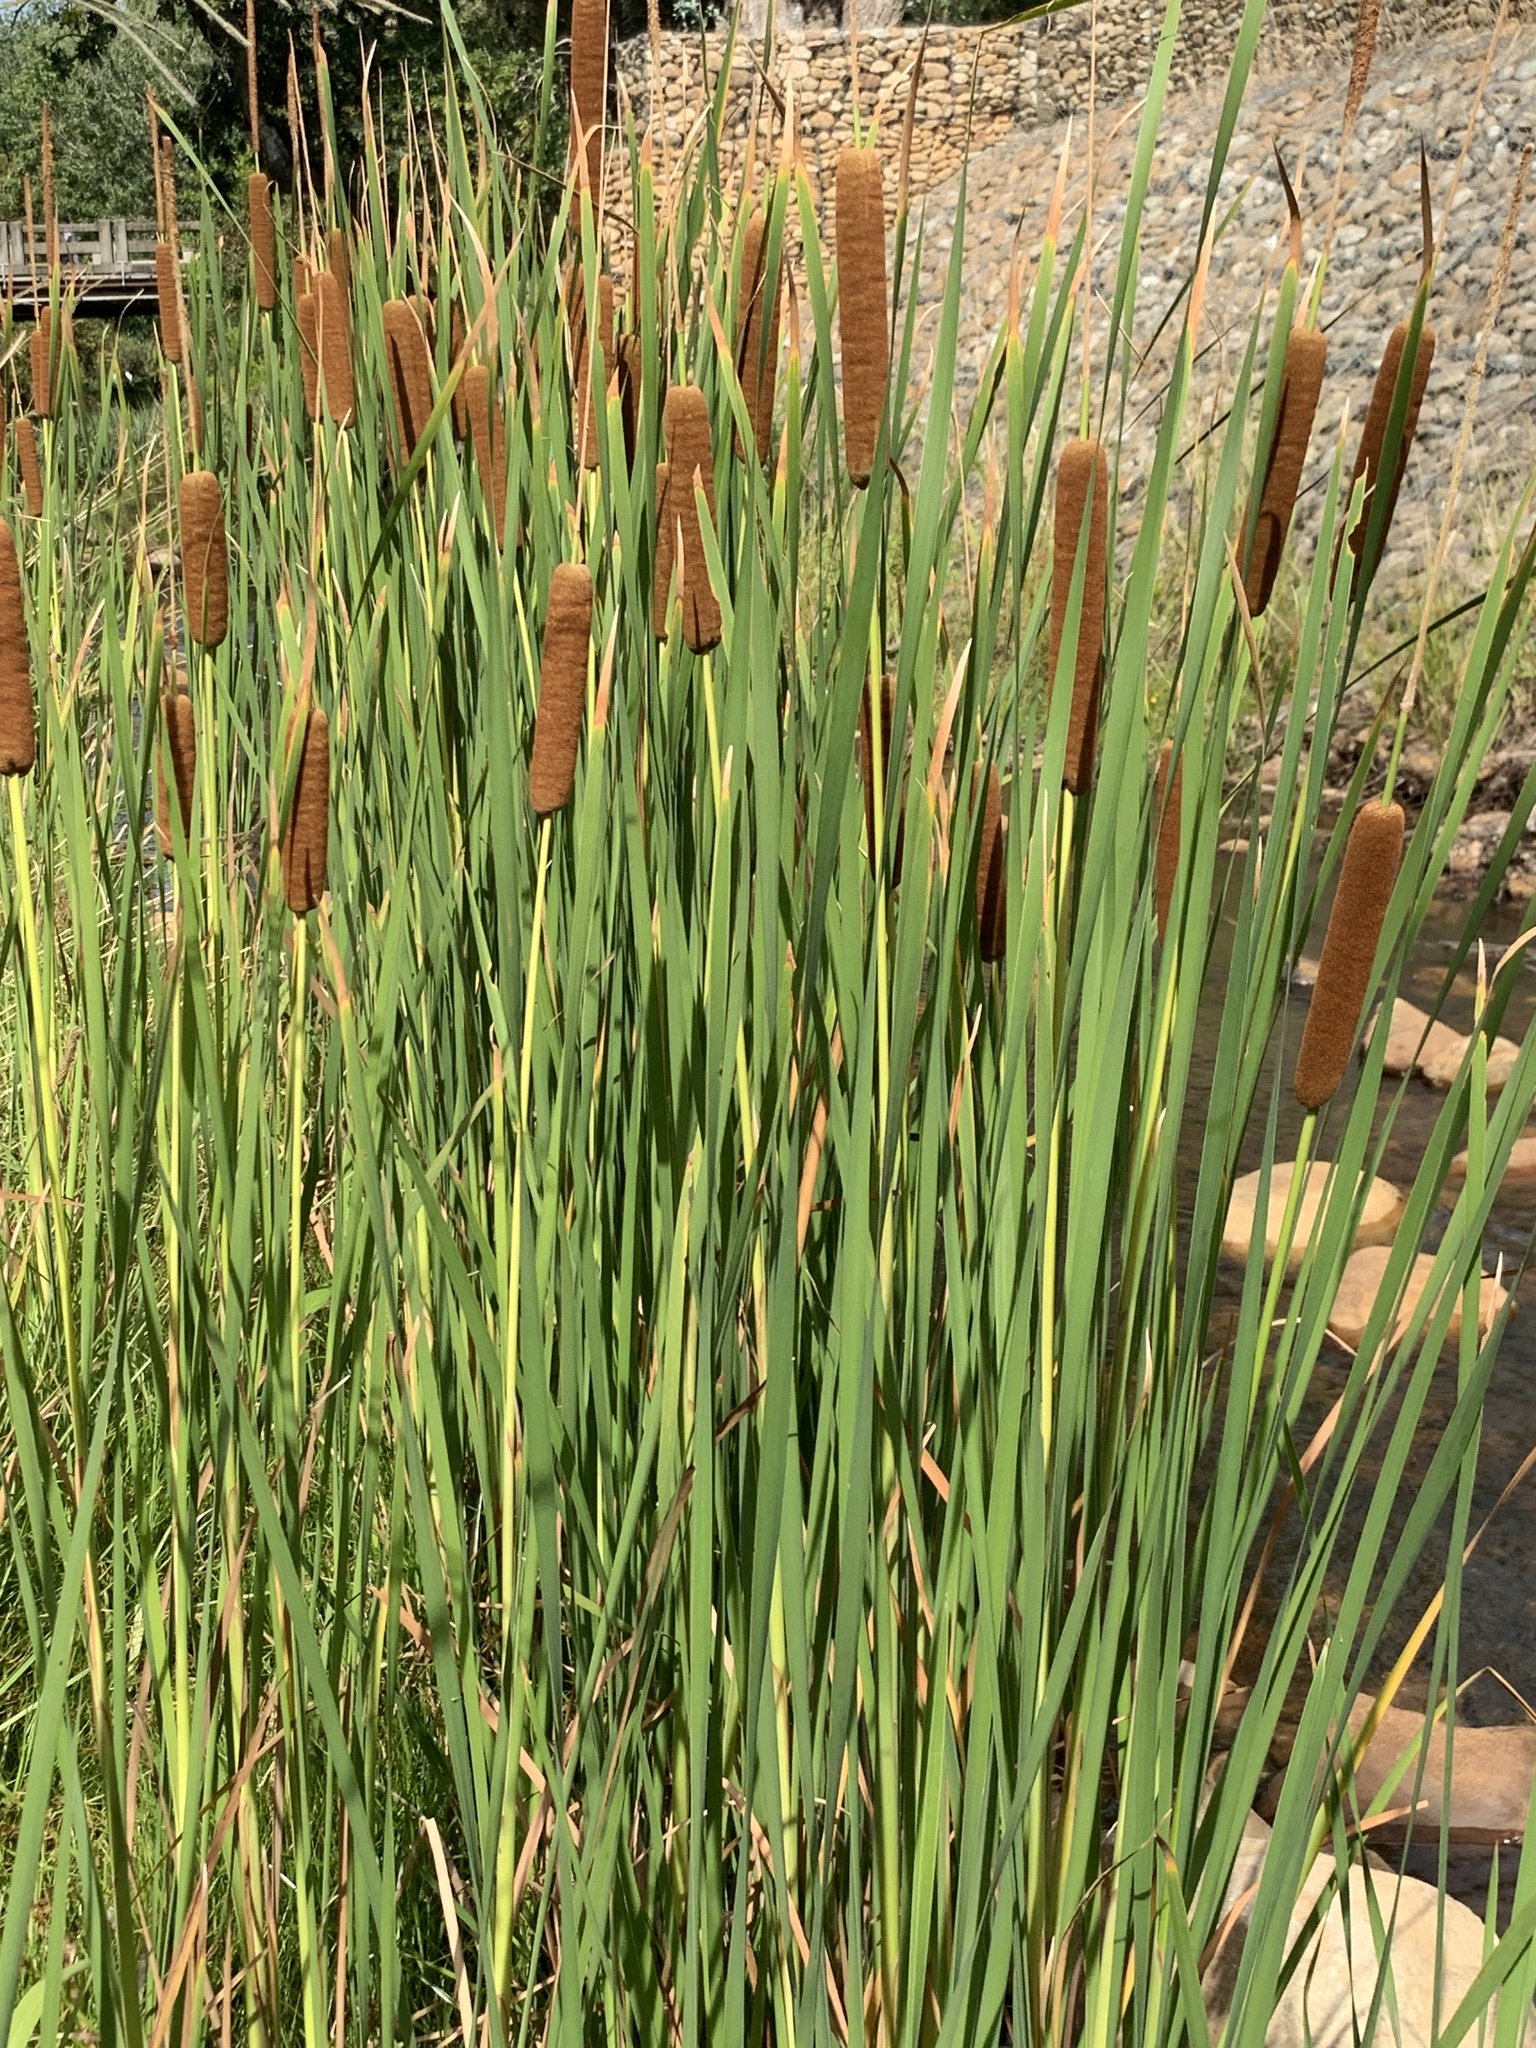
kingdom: Plantae
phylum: Tracheophyta
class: Liliopsida
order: Poales
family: Typhaceae
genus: Typha
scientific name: Typha capensis
